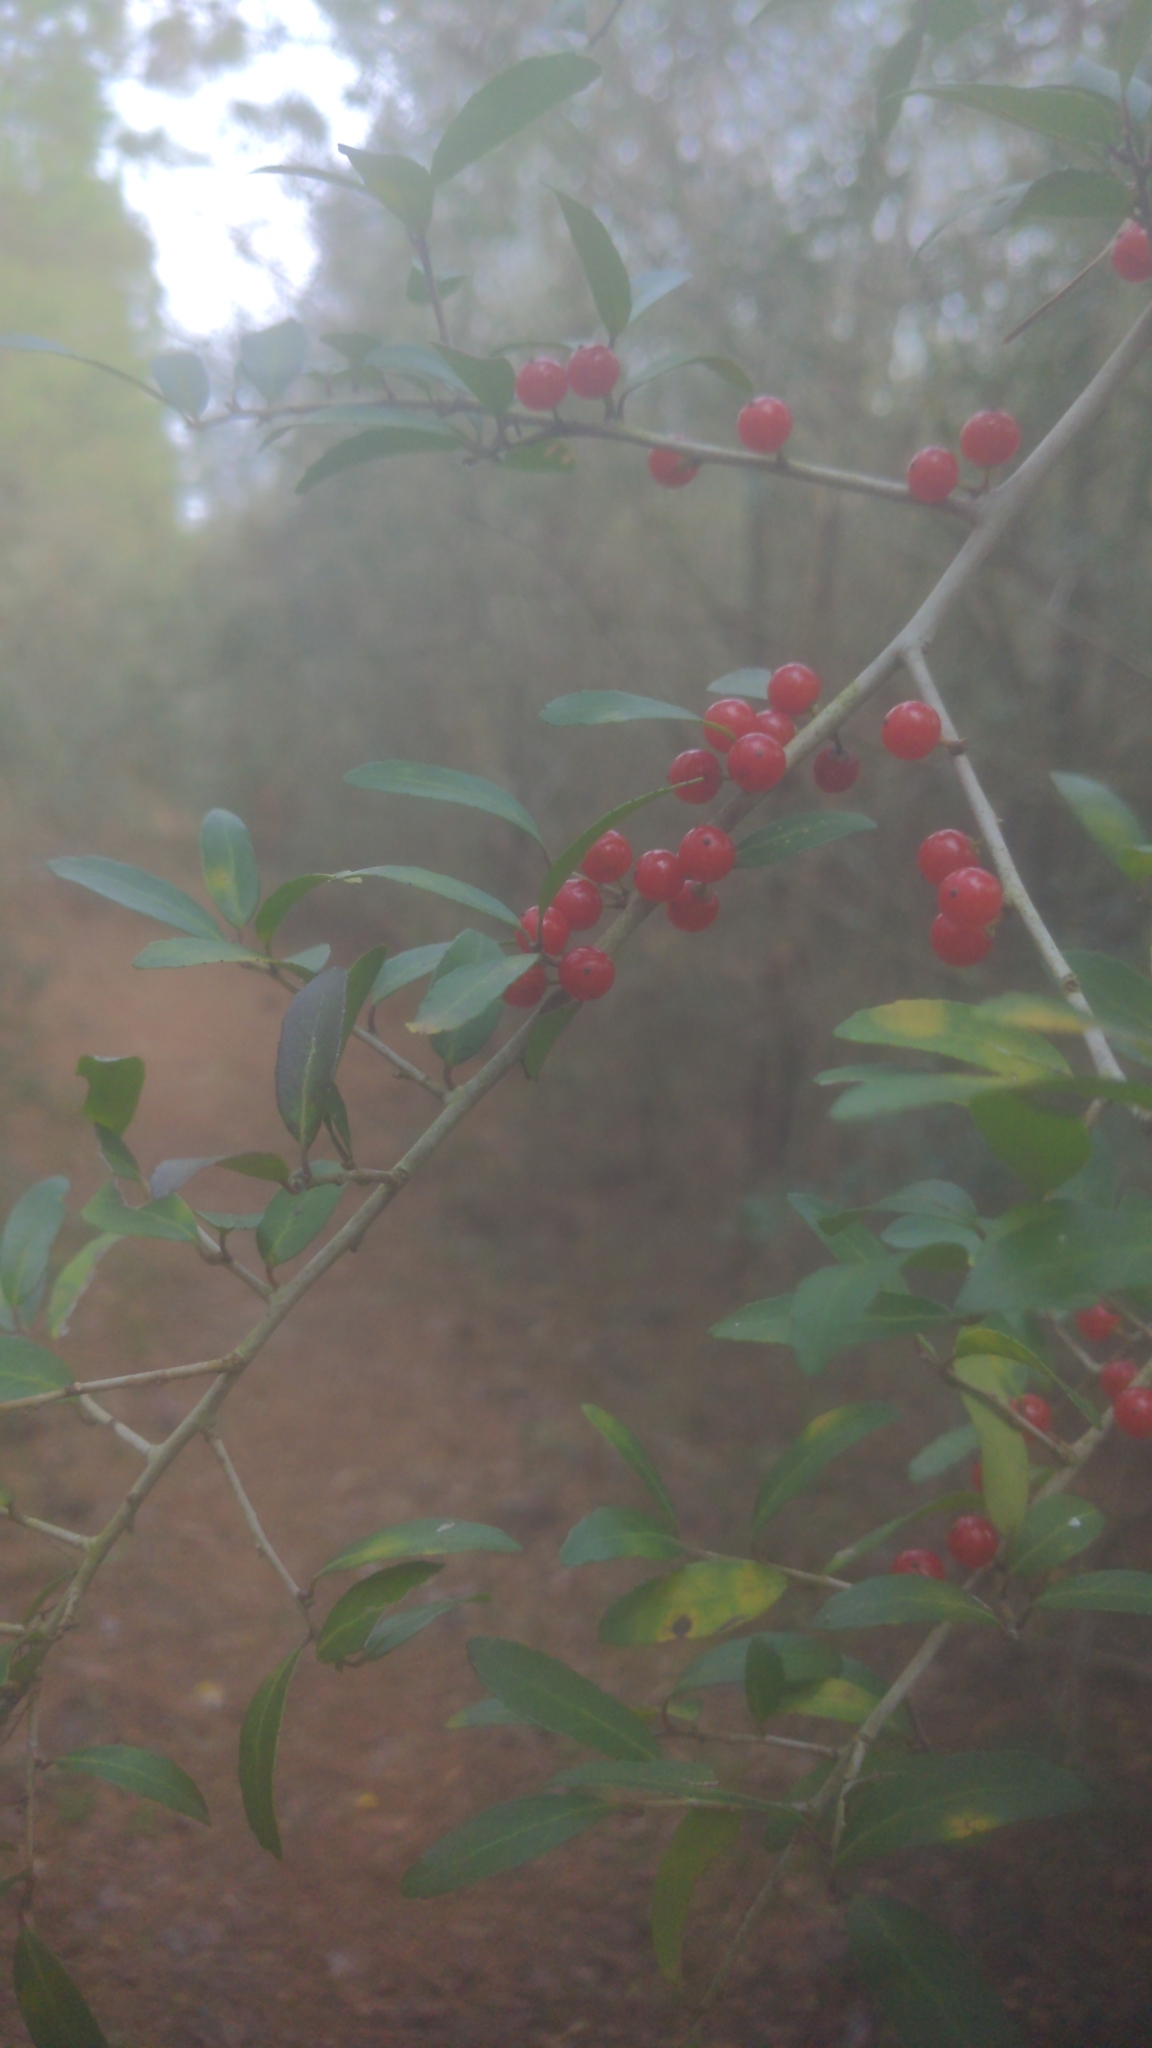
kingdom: Plantae
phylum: Tracheophyta
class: Magnoliopsida
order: Aquifoliales
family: Aquifoliaceae
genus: Ilex
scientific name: Ilex vomitoria
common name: Yaupon holly
